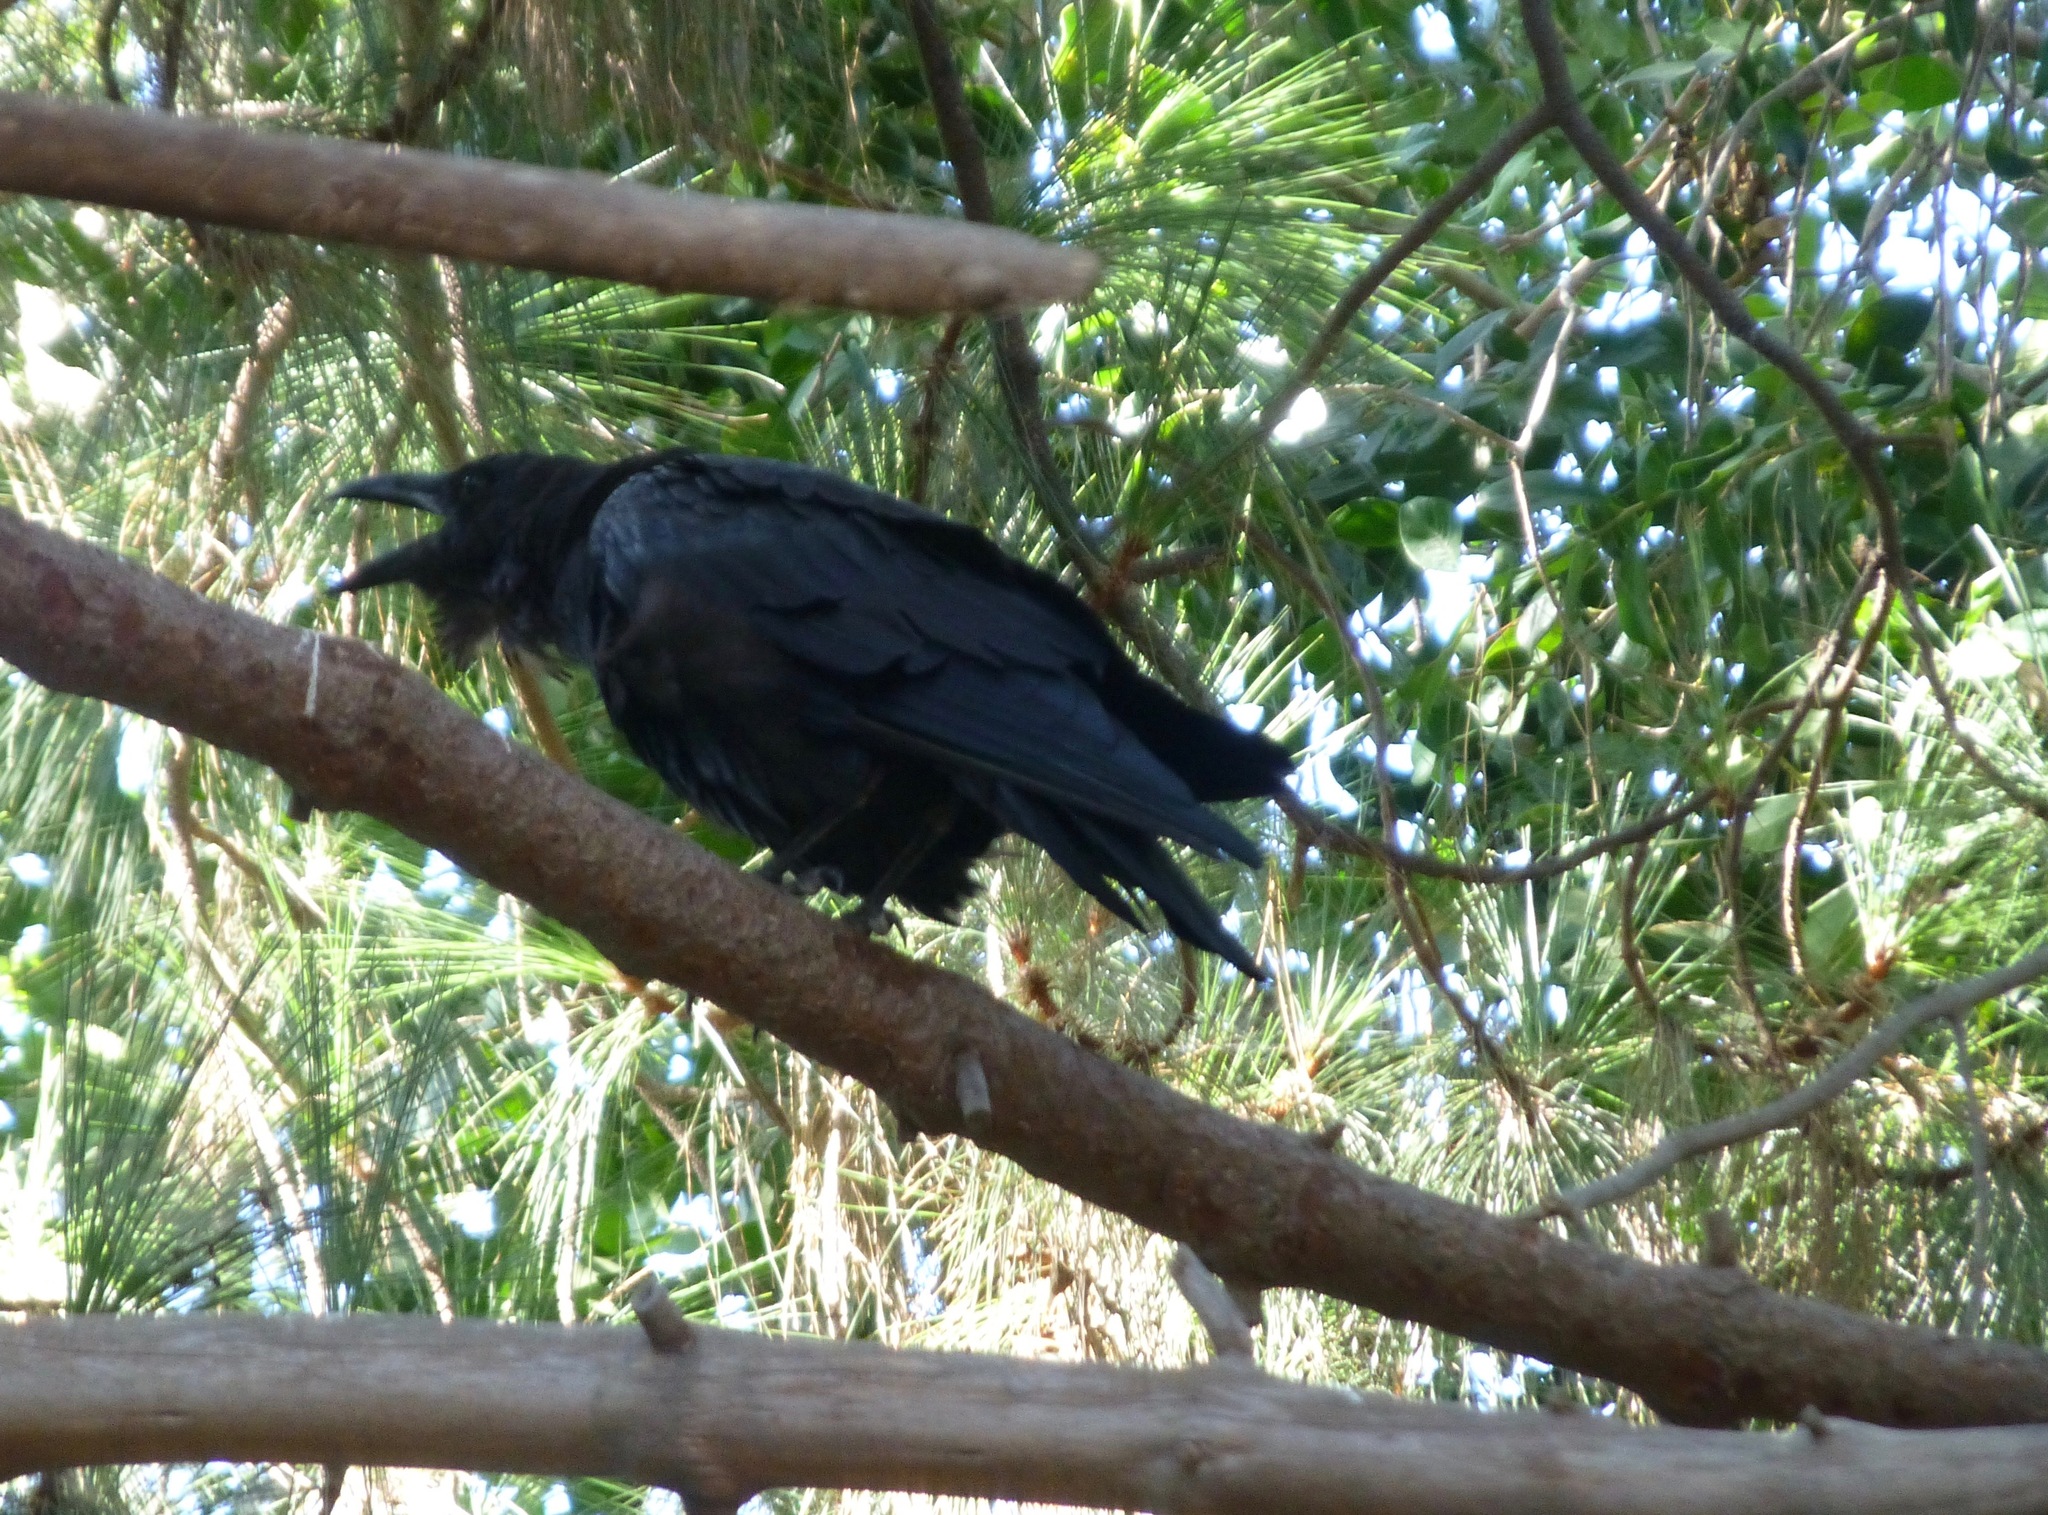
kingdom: Animalia
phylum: Chordata
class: Aves
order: Passeriformes
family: Corvidae
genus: Corvus
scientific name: Corvus corax
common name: Common raven
